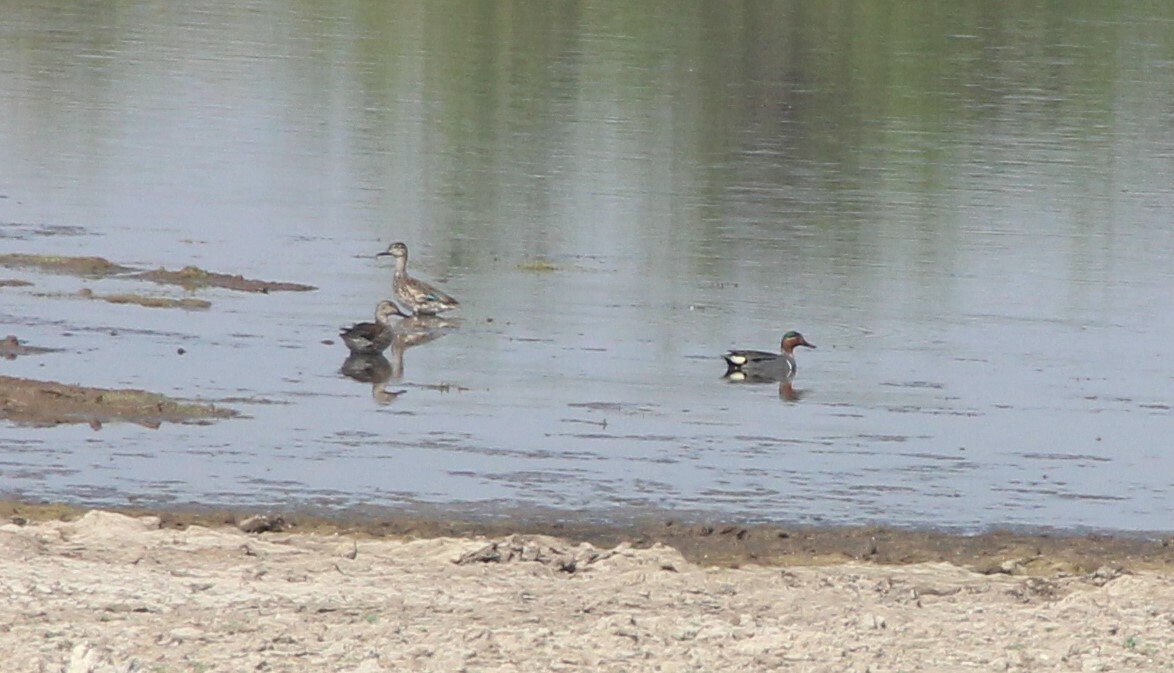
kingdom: Animalia
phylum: Chordata
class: Aves
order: Anseriformes
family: Anatidae
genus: Anas
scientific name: Anas crecca
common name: Eurasian teal
